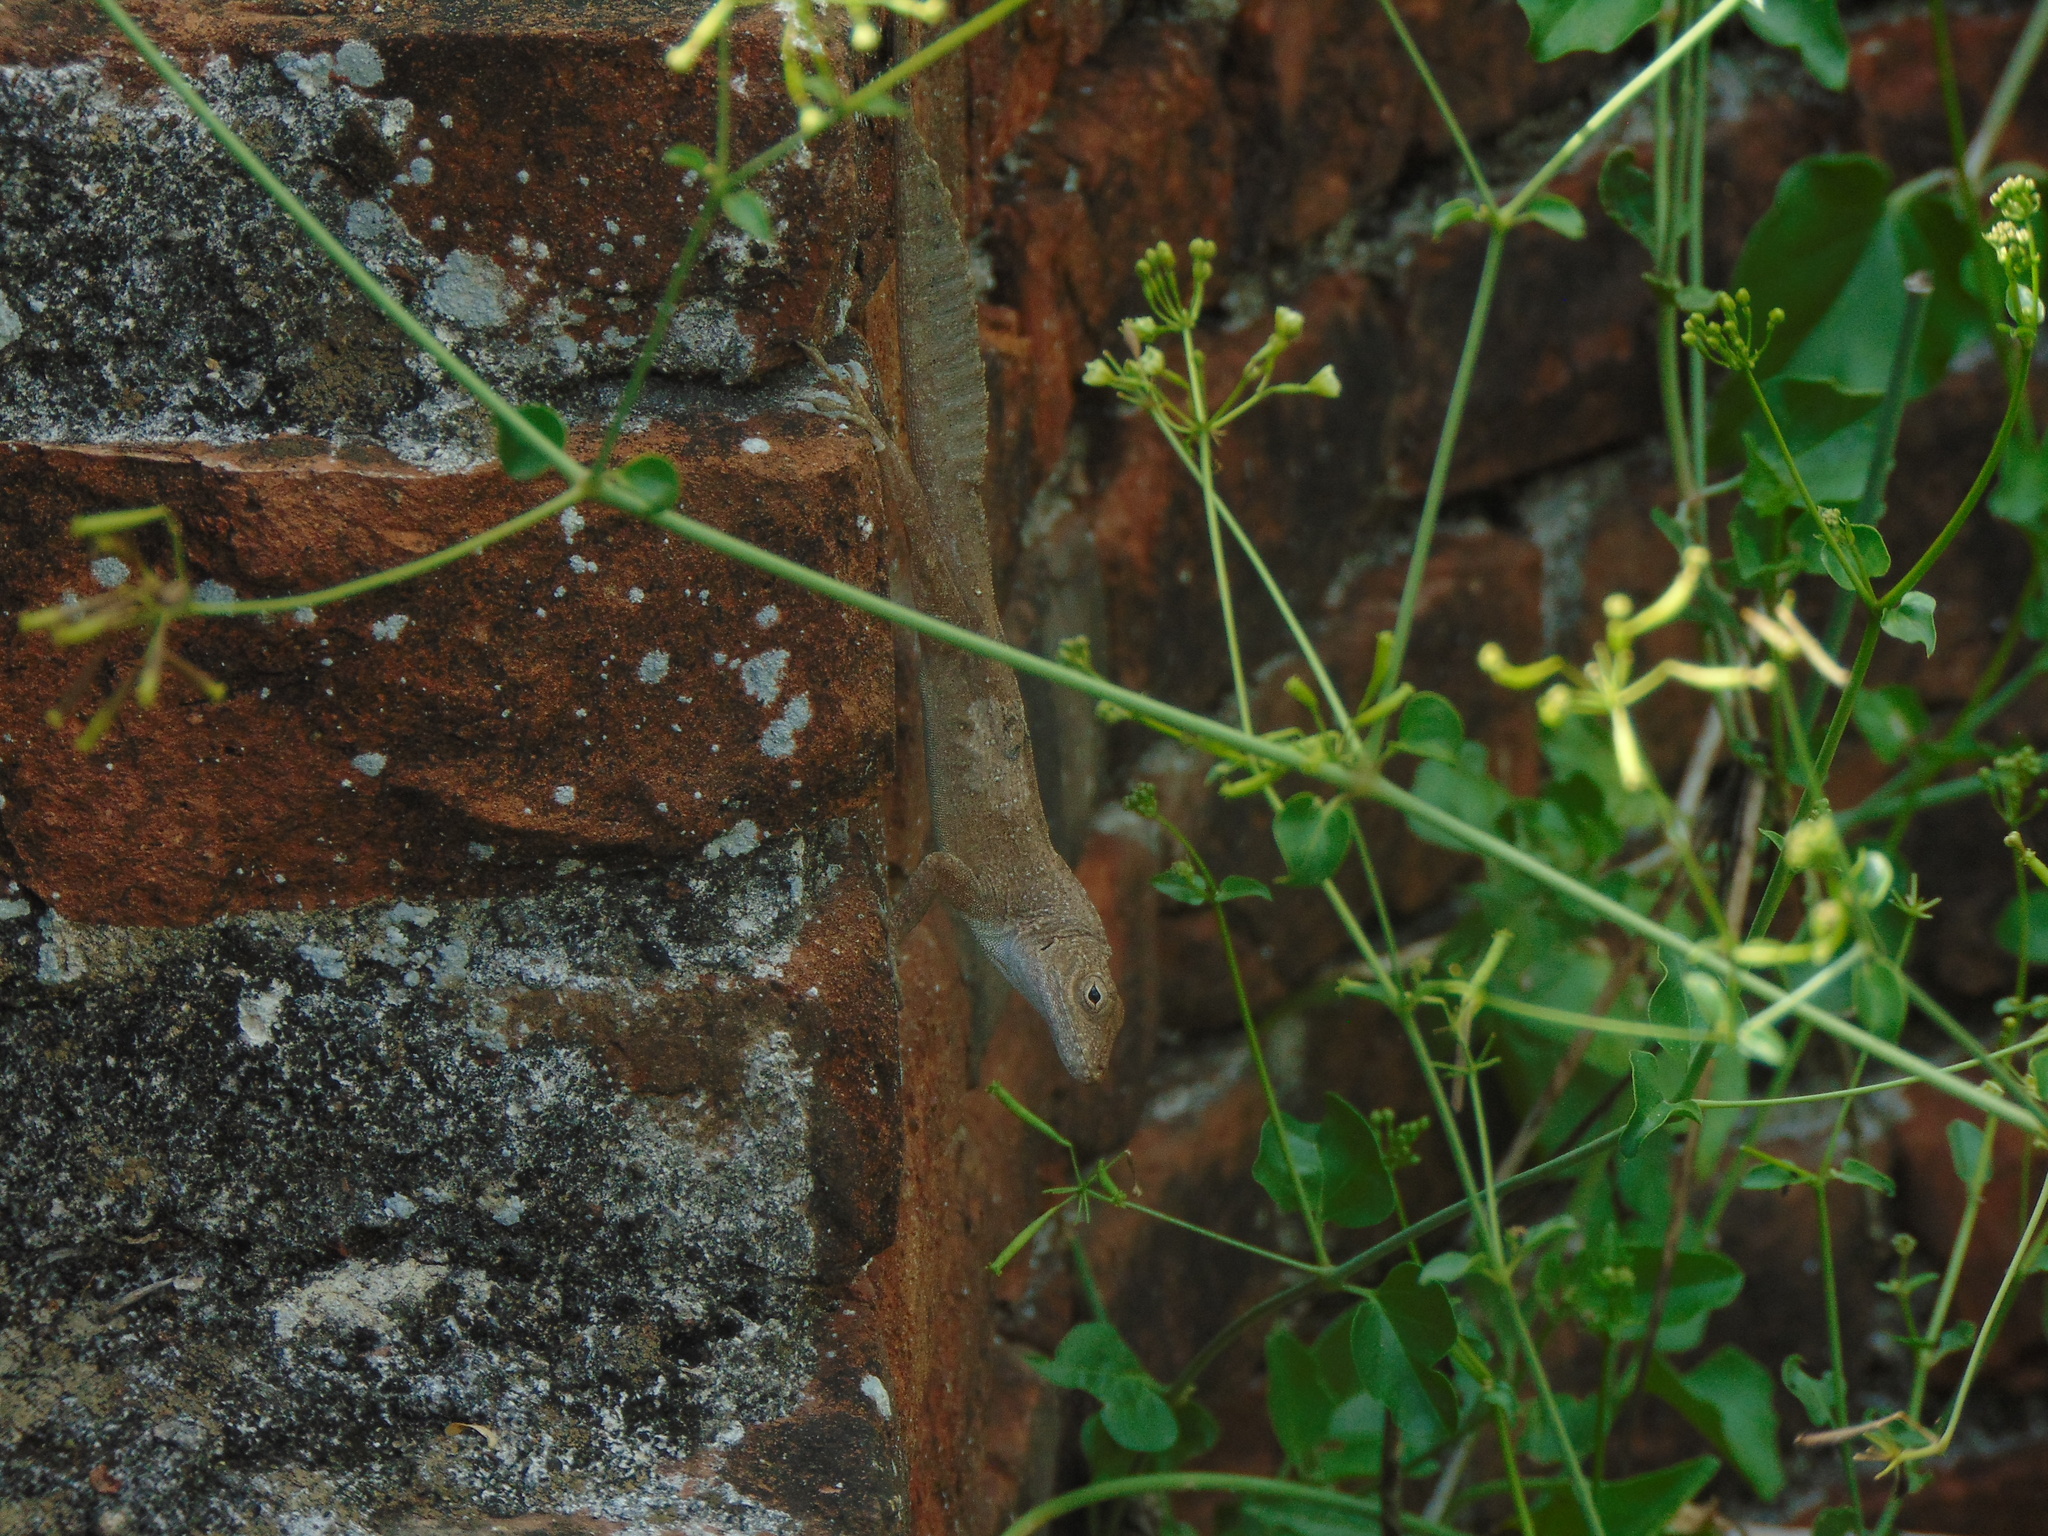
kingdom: Animalia
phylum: Chordata
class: Squamata
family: Dactyloidae
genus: Anolis
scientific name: Anolis cristatellus
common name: Crested anole
